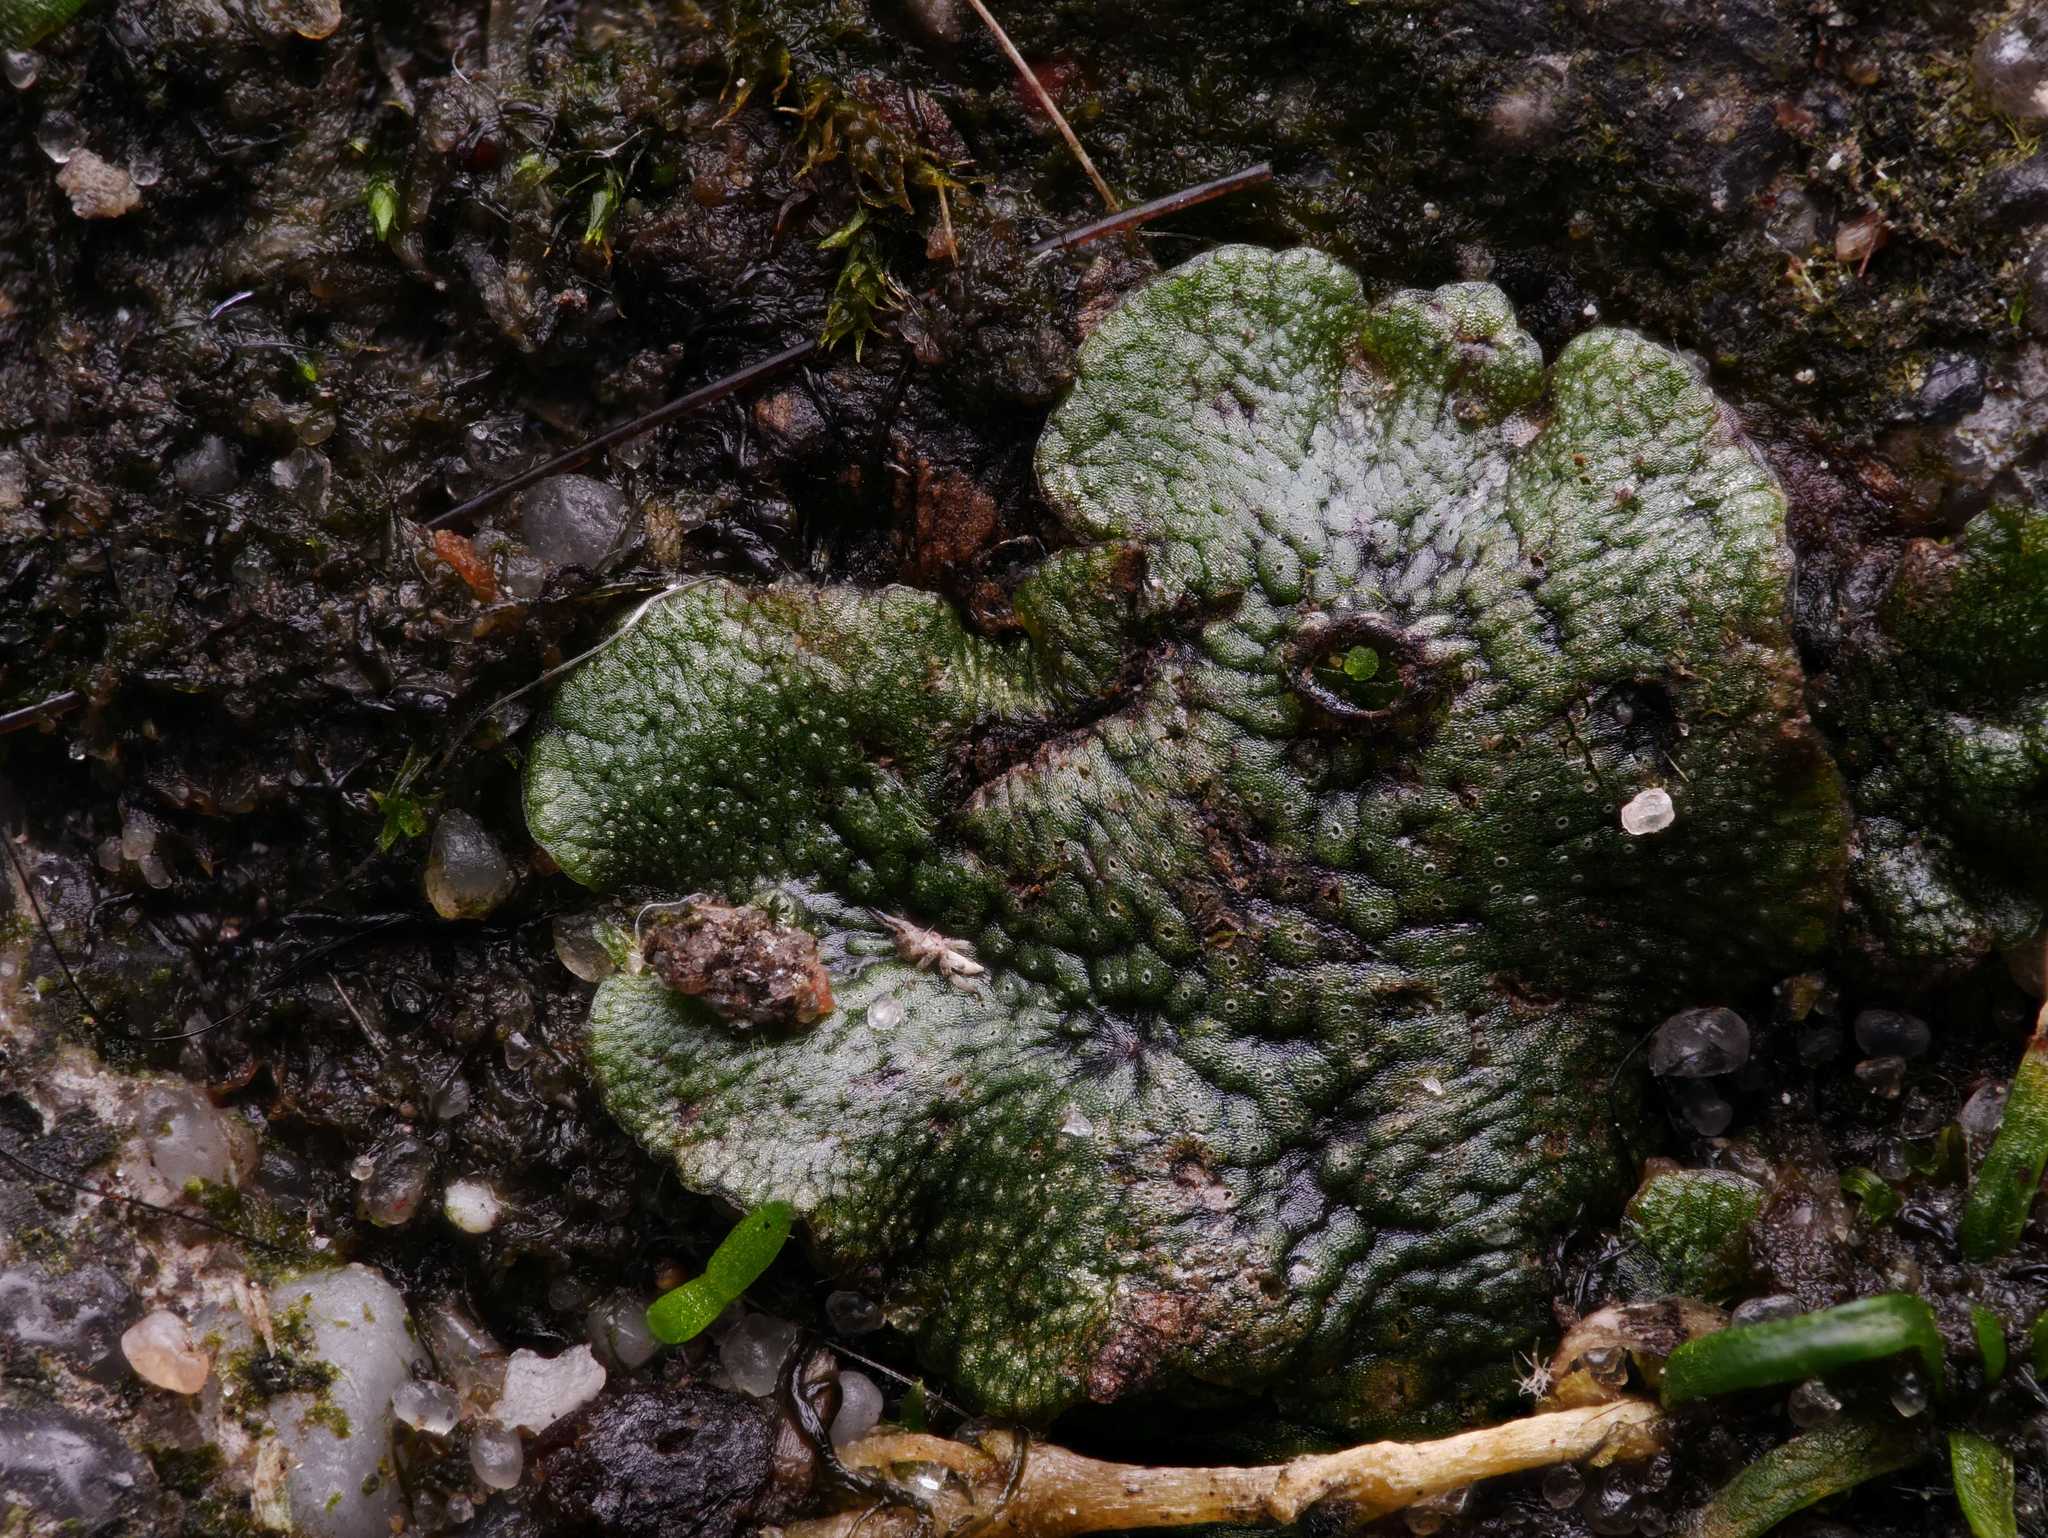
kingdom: Plantae
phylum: Marchantiophyta
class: Marchantiopsida
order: Marchantiales
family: Marchantiaceae
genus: Marchantia
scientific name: Marchantia polymorpha
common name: Common liverwort
